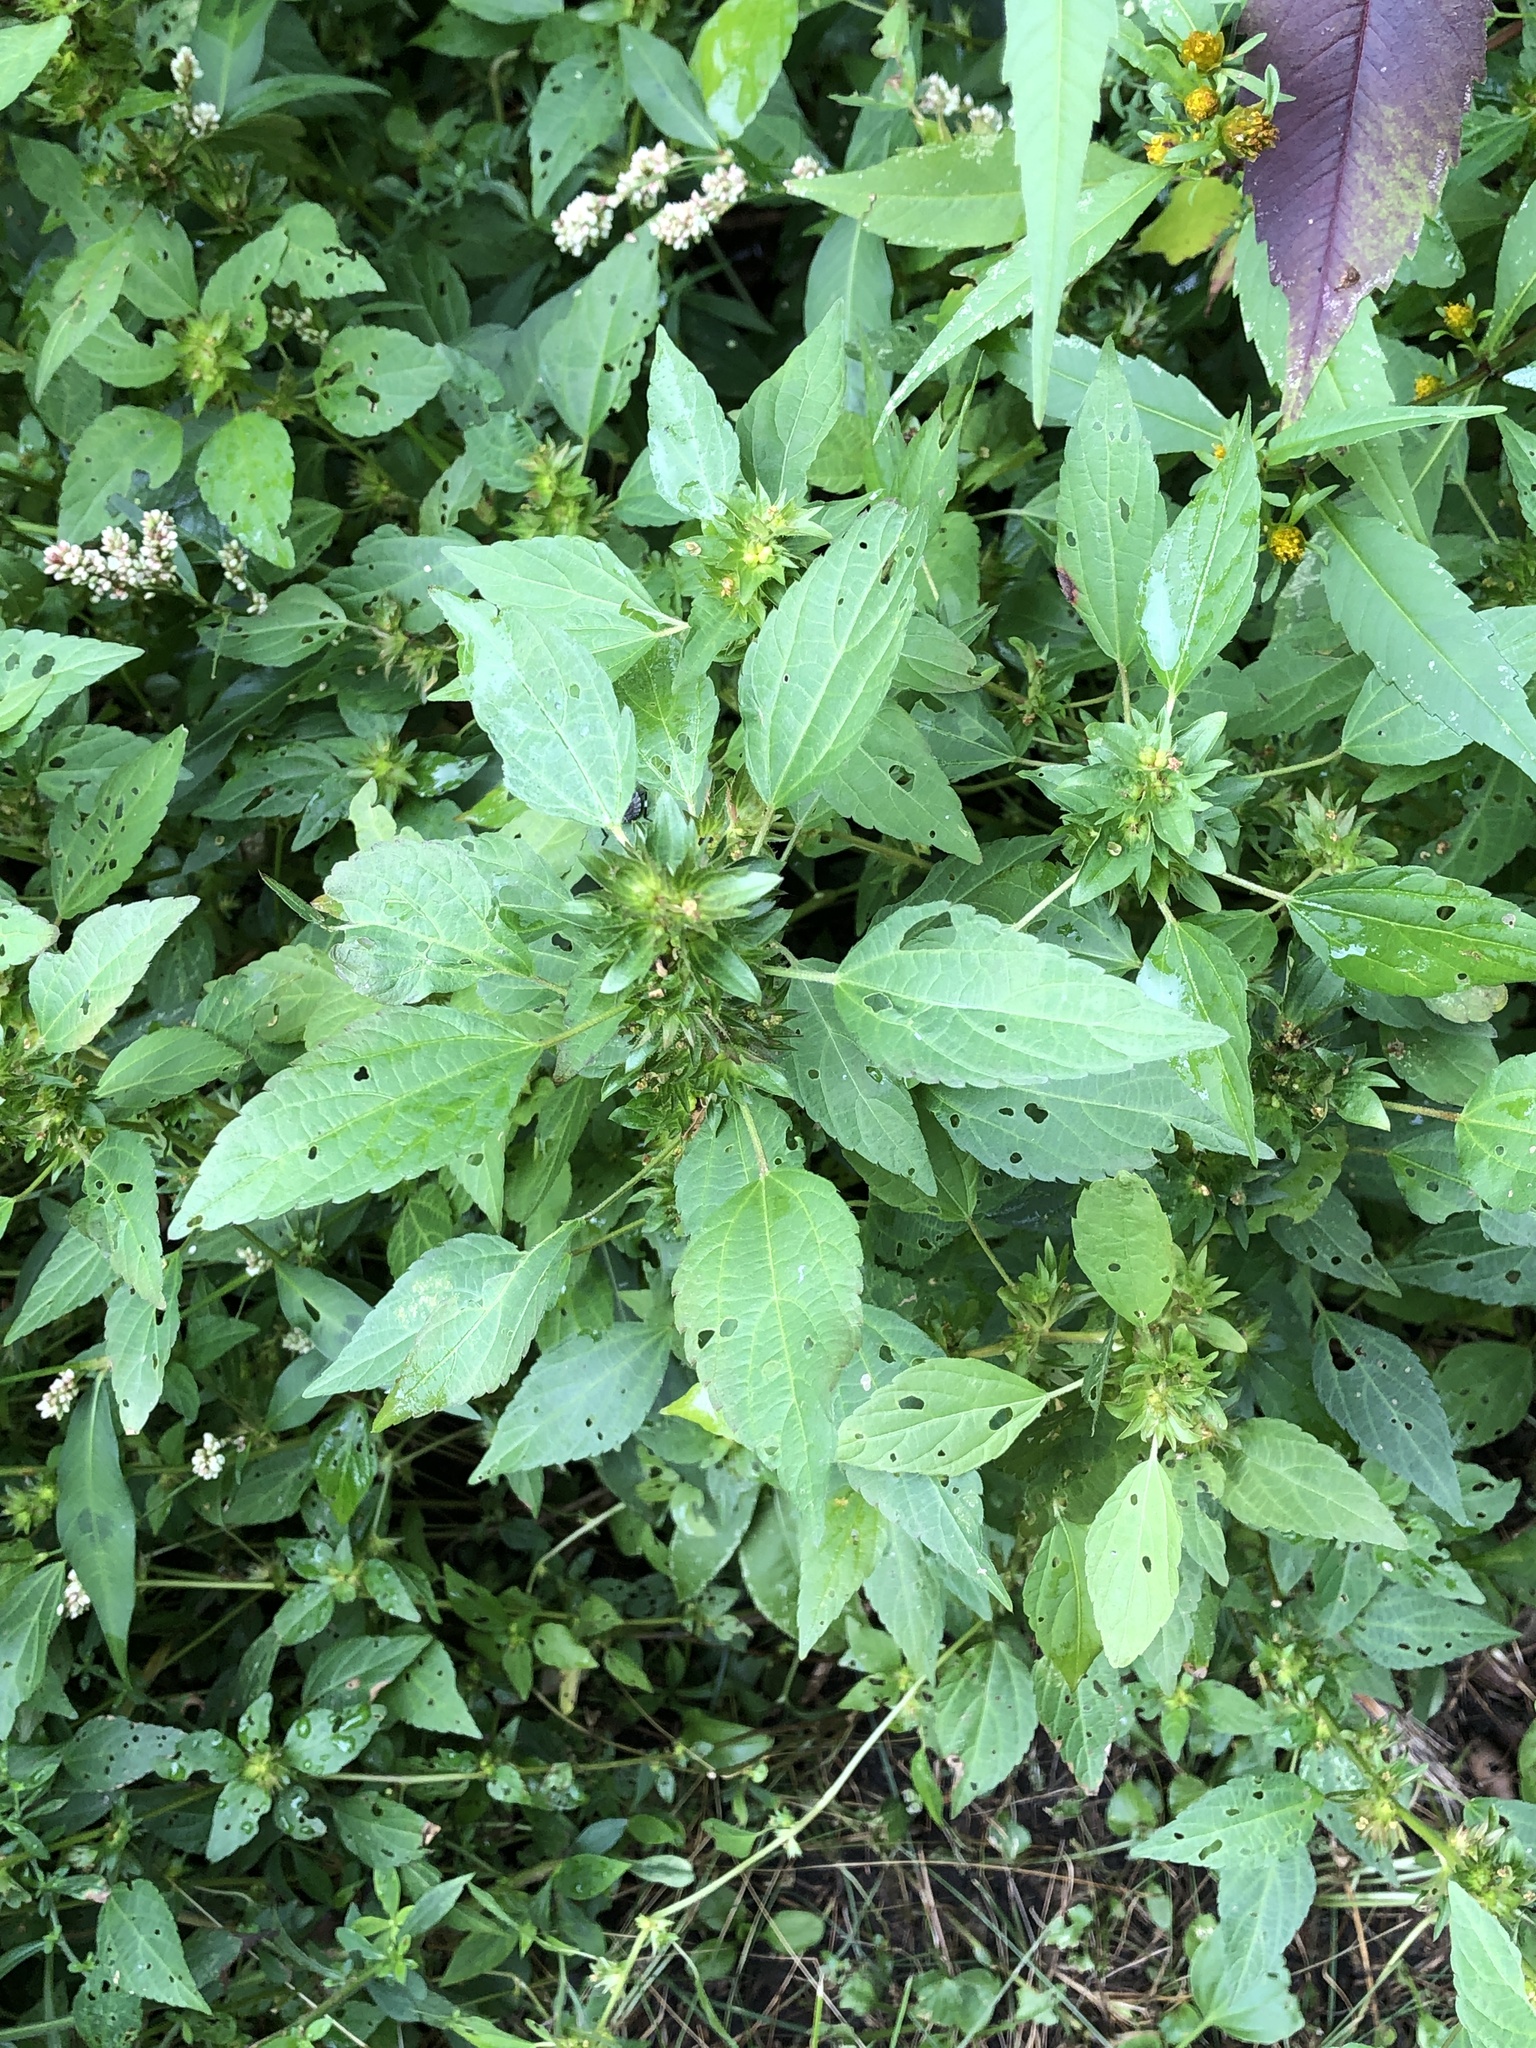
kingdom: Plantae
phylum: Tracheophyta
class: Magnoliopsida
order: Malpighiales
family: Euphorbiaceae
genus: Acalypha
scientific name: Acalypha rhomboidea
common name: Rhombic copperleaf
